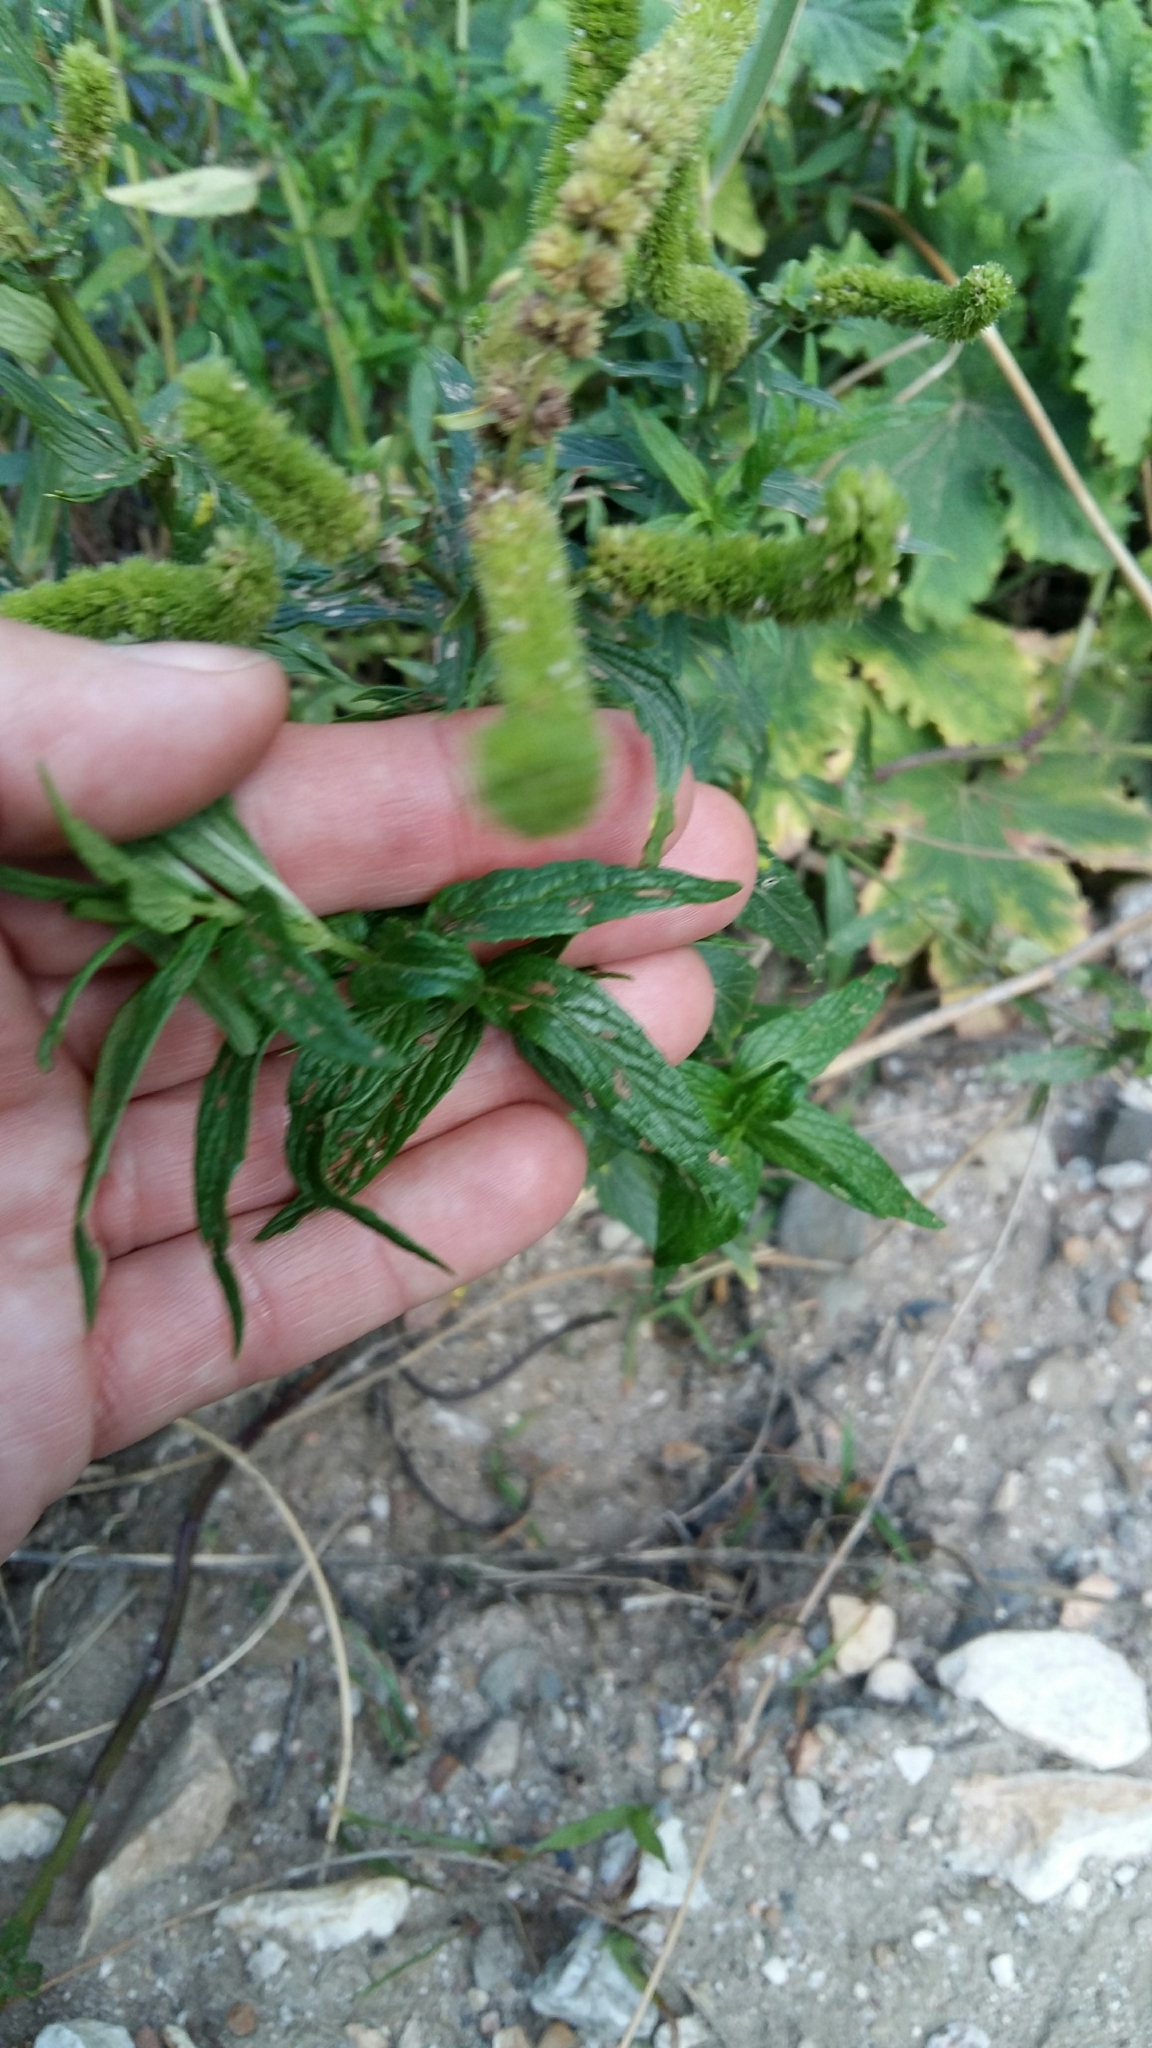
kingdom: Plantae
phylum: Tracheophyta
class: Magnoliopsida
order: Lamiales
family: Lamiaceae
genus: Mentha
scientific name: Mentha longifolia
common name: Horse mint
